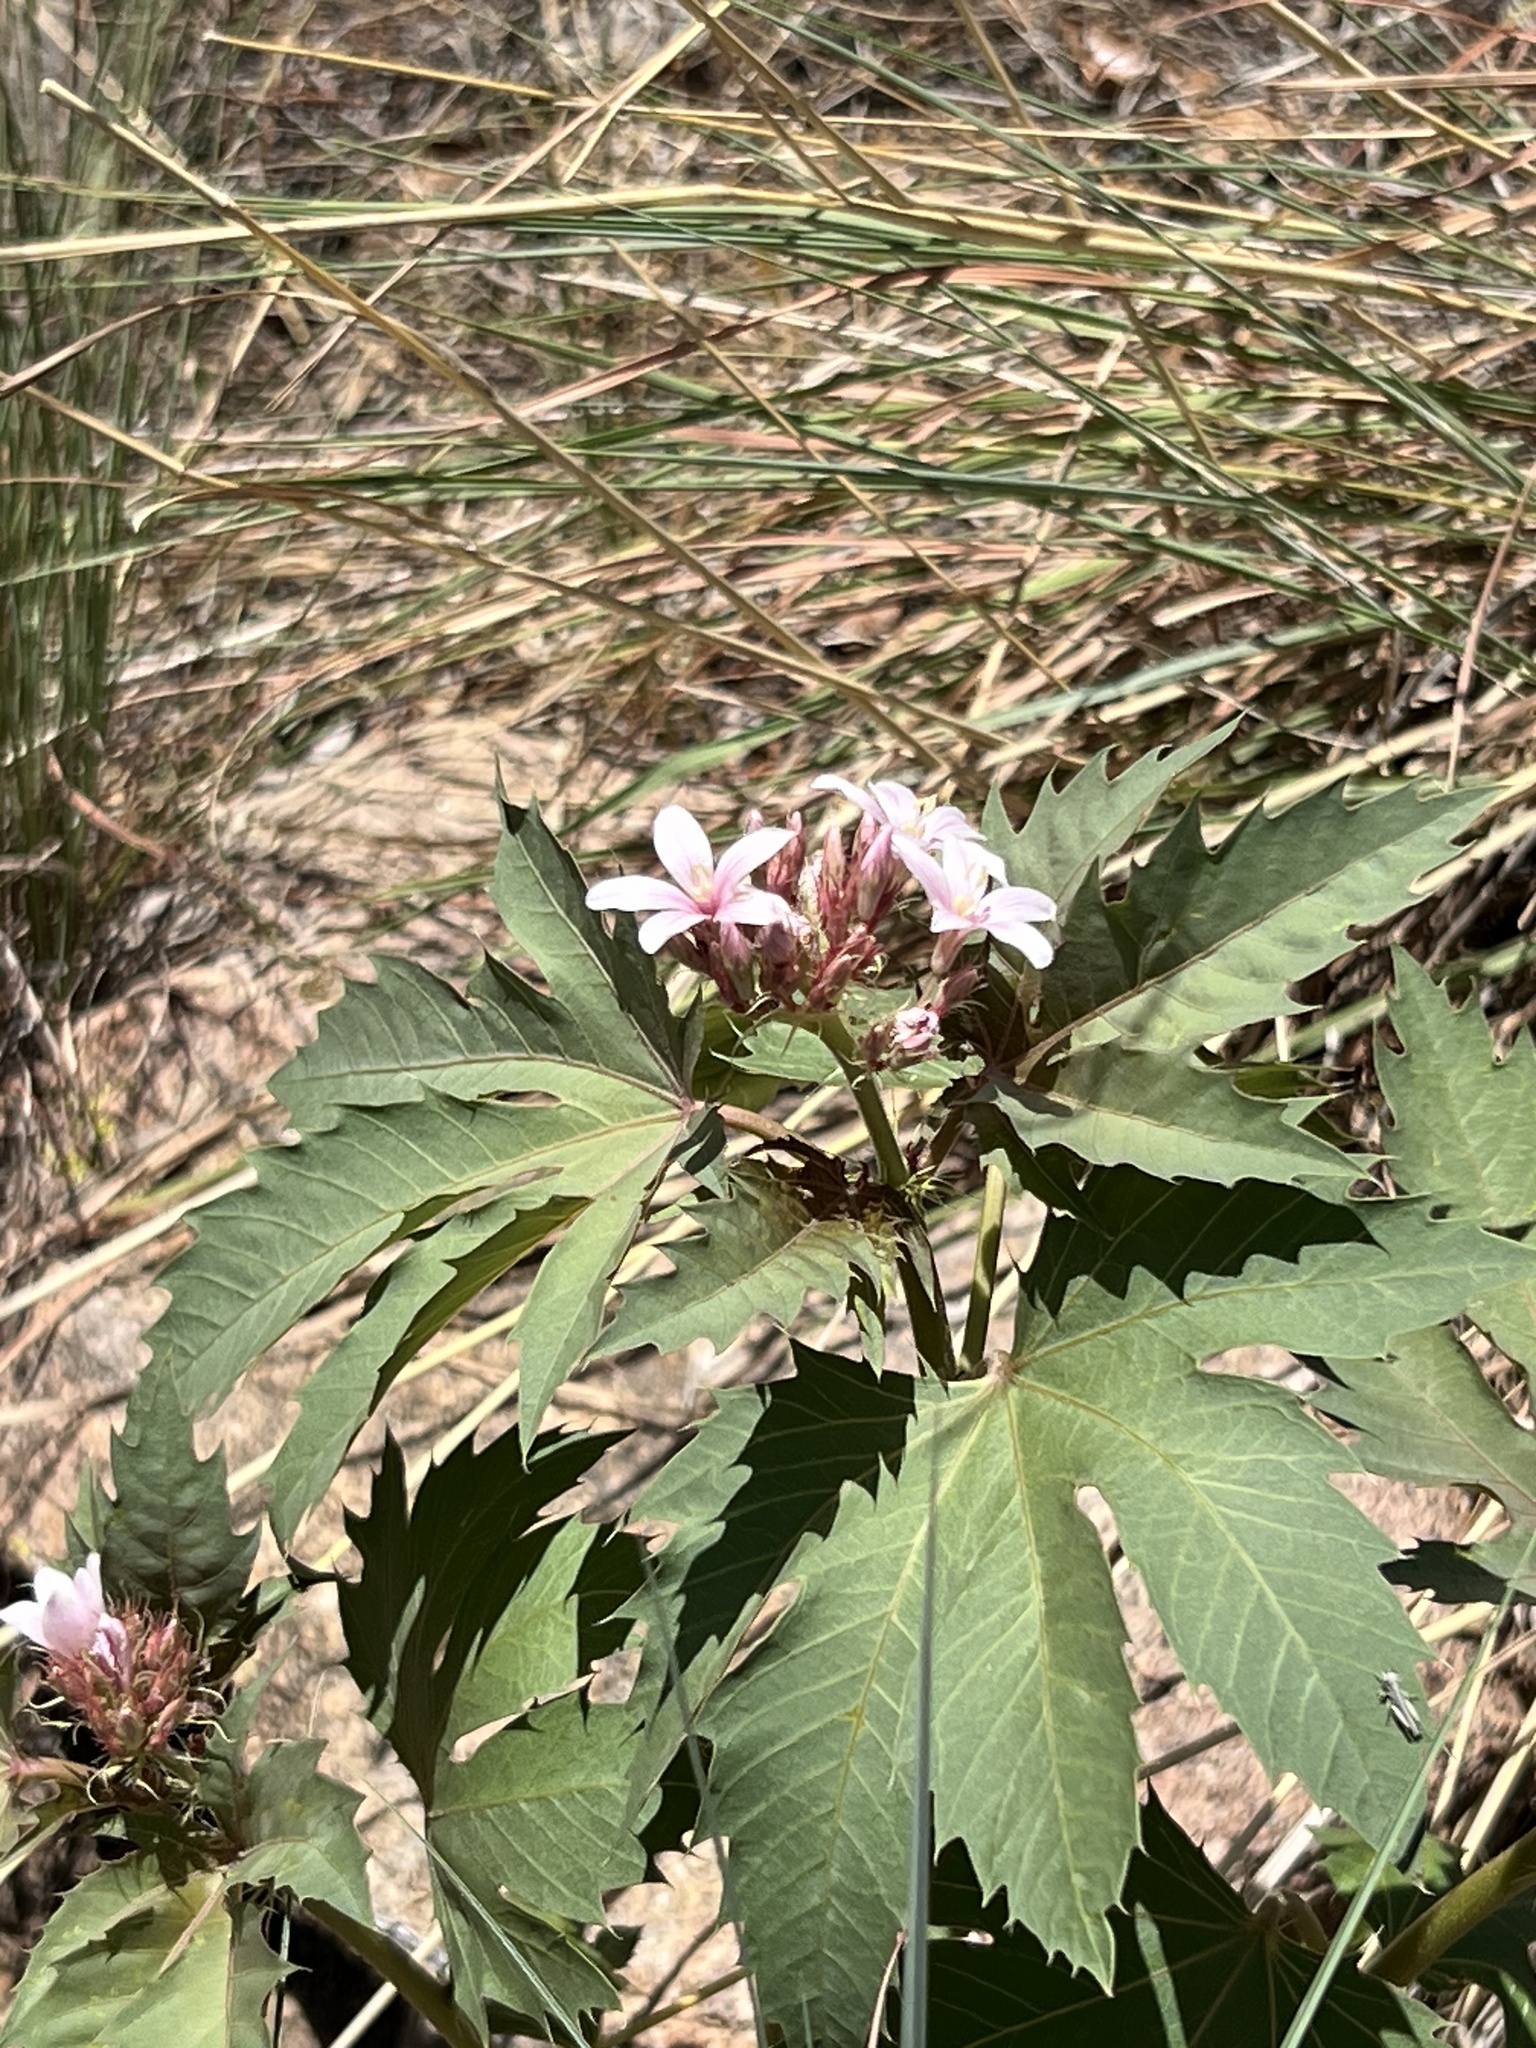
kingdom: Plantae
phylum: Tracheophyta
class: Magnoliopsida
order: Malpighiales
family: Euphorbiaceae
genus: Jatropha
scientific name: Jatropha macrorhiza
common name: Ragged nettlespurge
